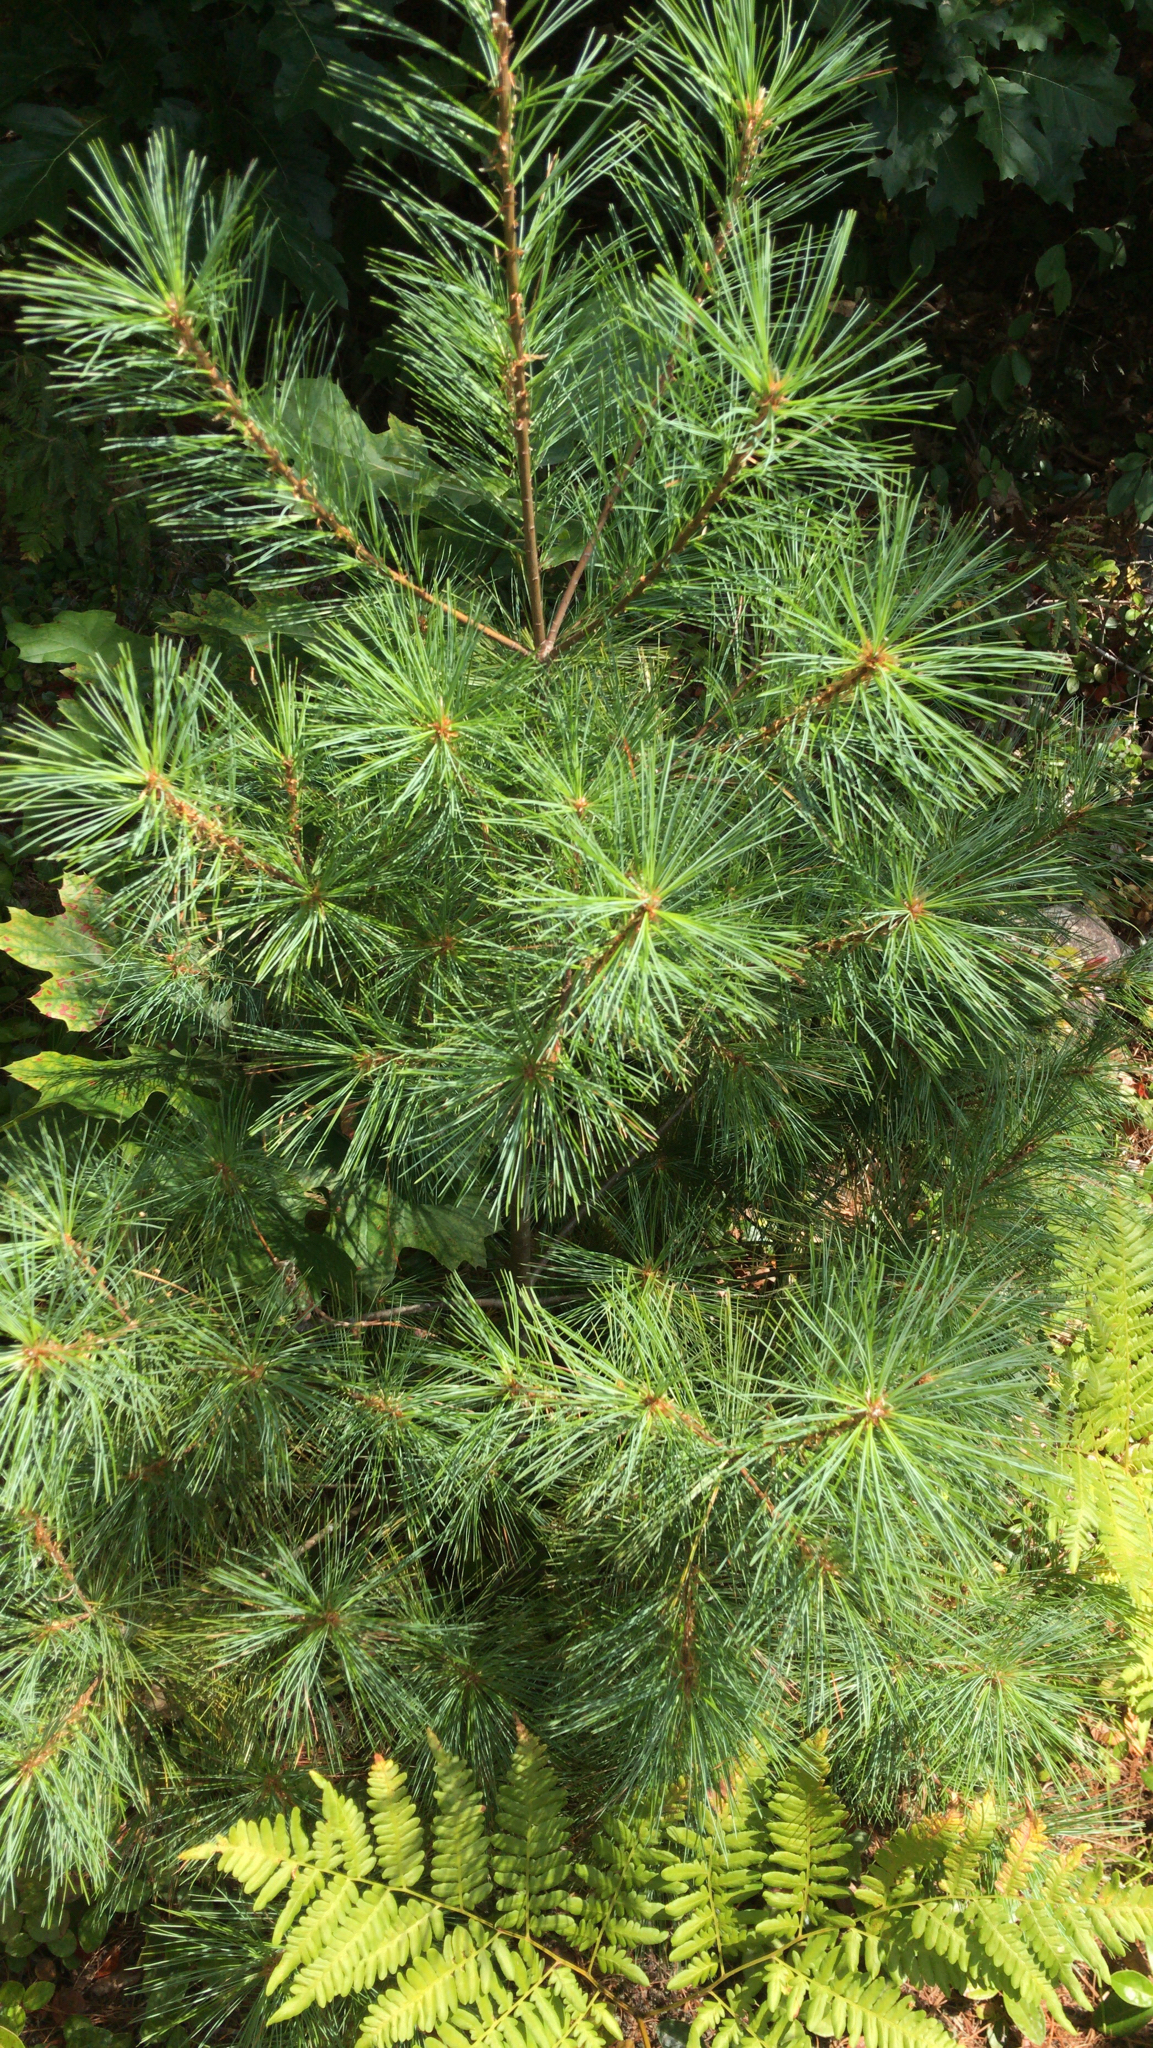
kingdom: Plantae
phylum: Tracheophyta
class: Pinopsida
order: Pinales
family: Pinaceae
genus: Pinus
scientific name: Pinus strobus
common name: Weymouth pine
